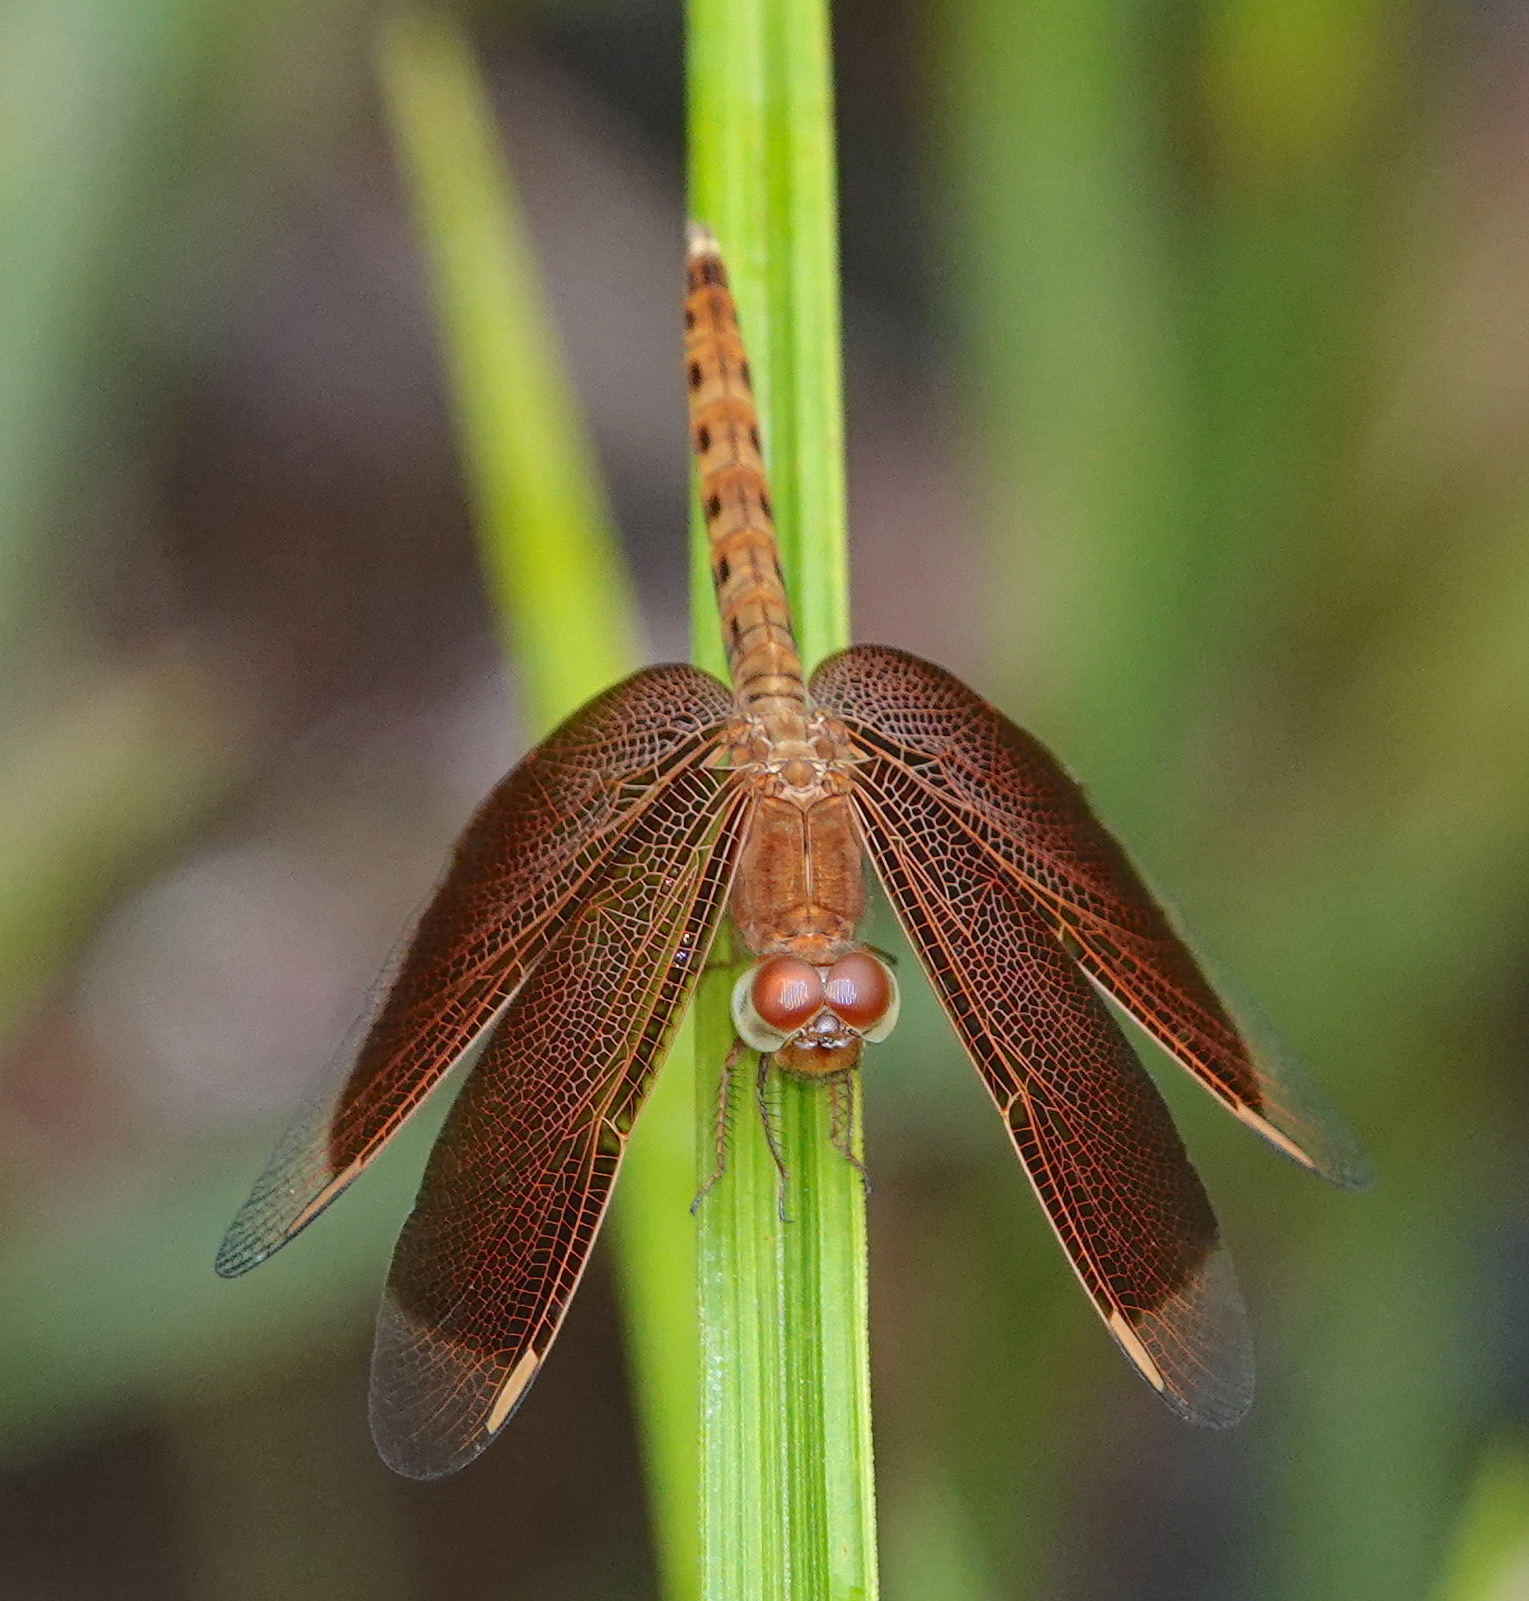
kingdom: Animalia
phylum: Arthropoda
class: Insecta
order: Odonata
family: Libellulidae
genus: Neurothemis
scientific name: Neurothemis fluctuans
